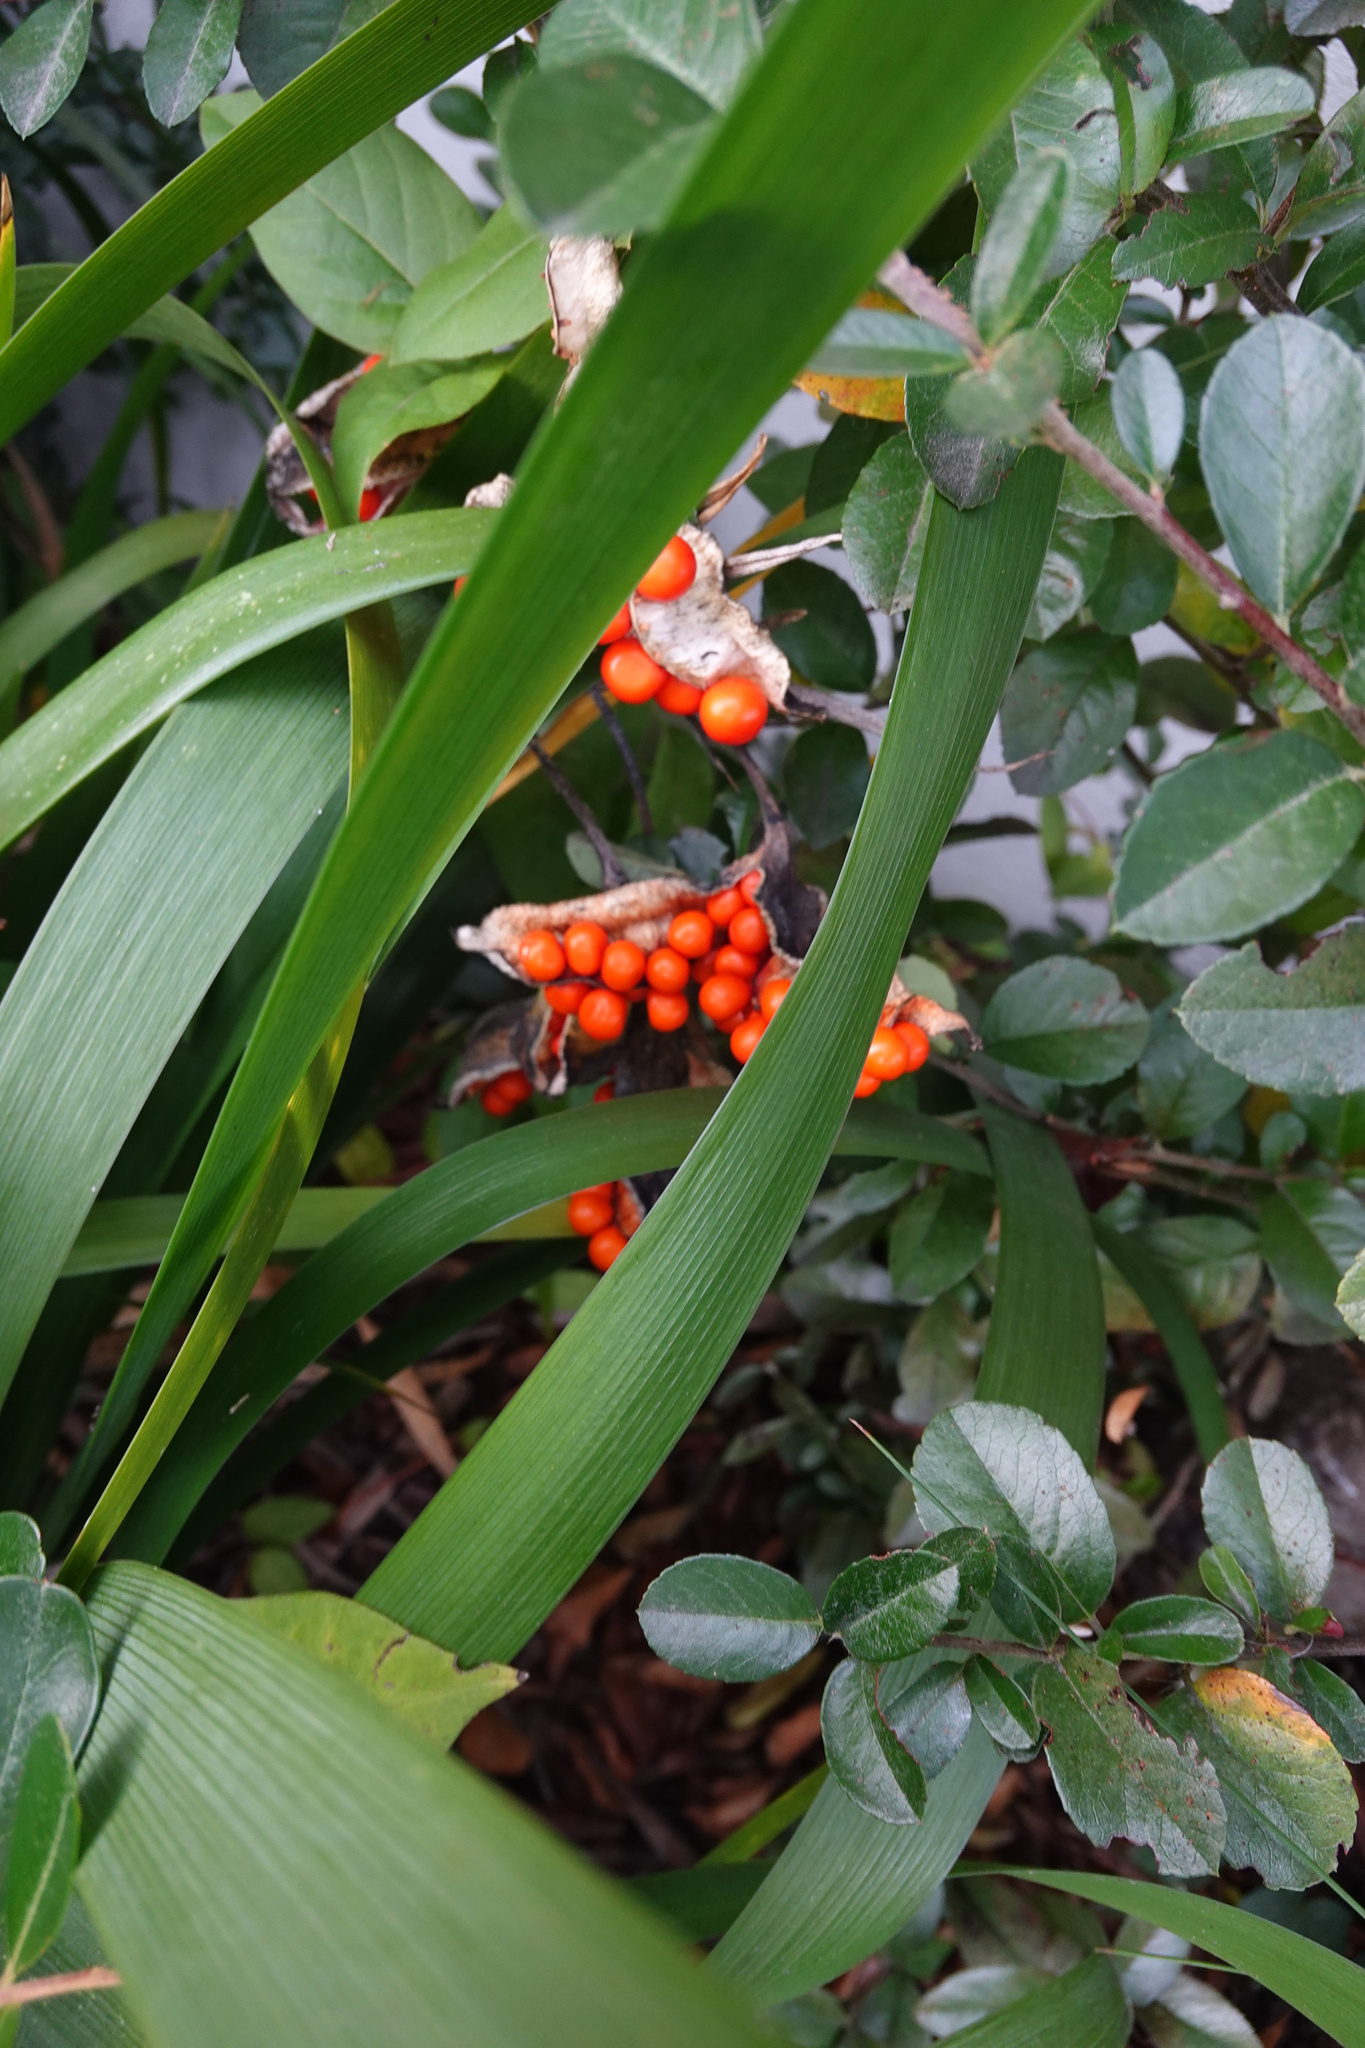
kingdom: Plantae
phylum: Tracheophyta
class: Liliopsida
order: Asparagales
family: Iridaceae
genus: Iris
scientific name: Iris foetidissima
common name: Stinking iris
